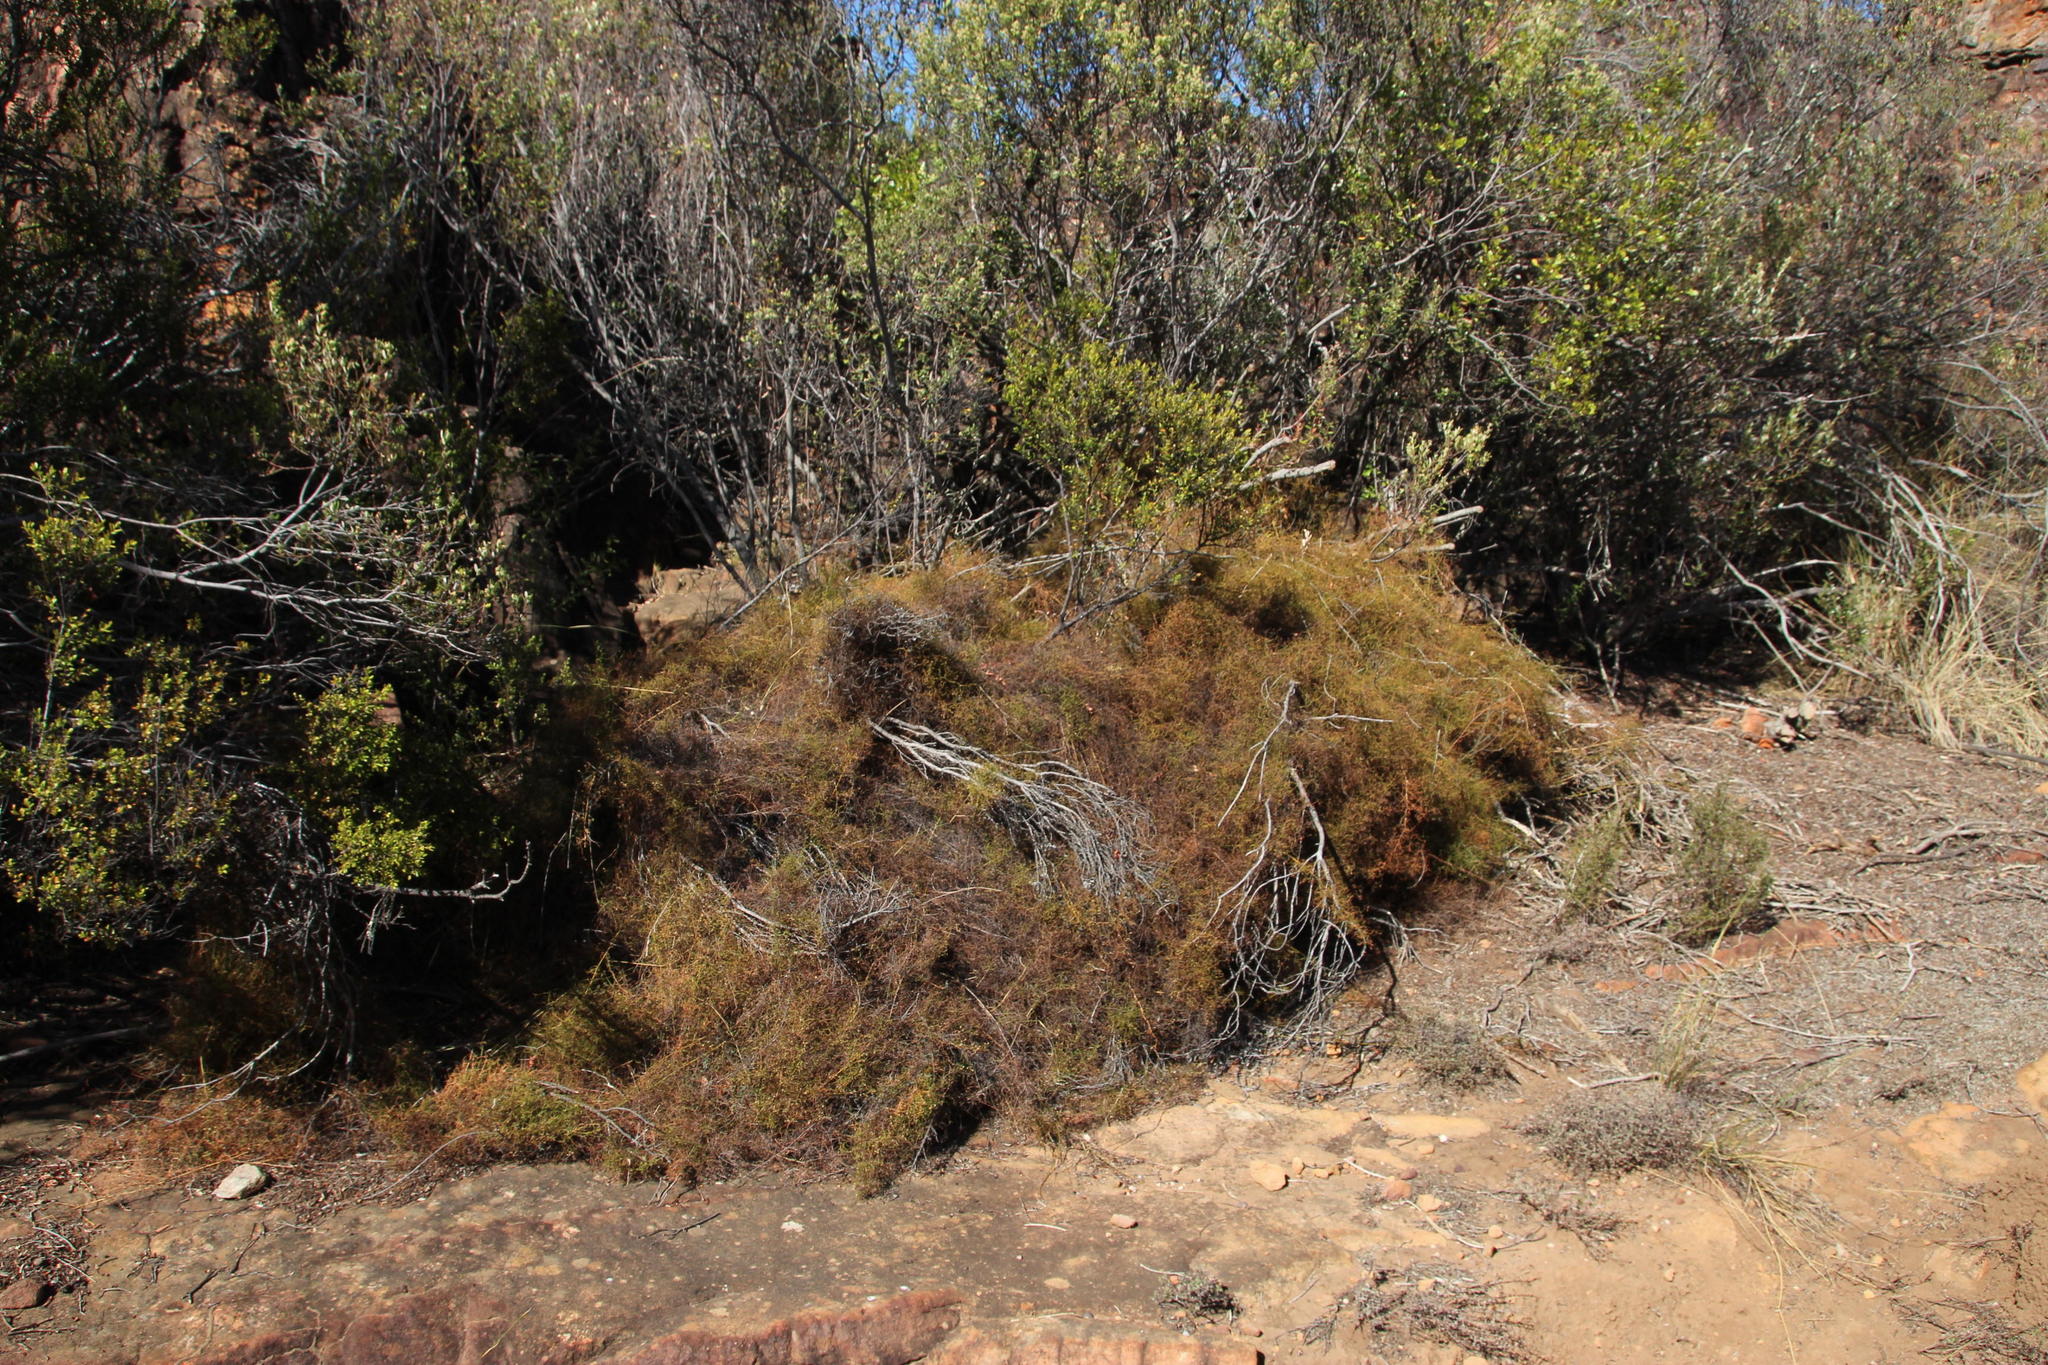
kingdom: Plantae
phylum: Tracheophyta
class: Liliopsida
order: Poales
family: Restionaceae
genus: Restio
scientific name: Restio gaudichaudianus
